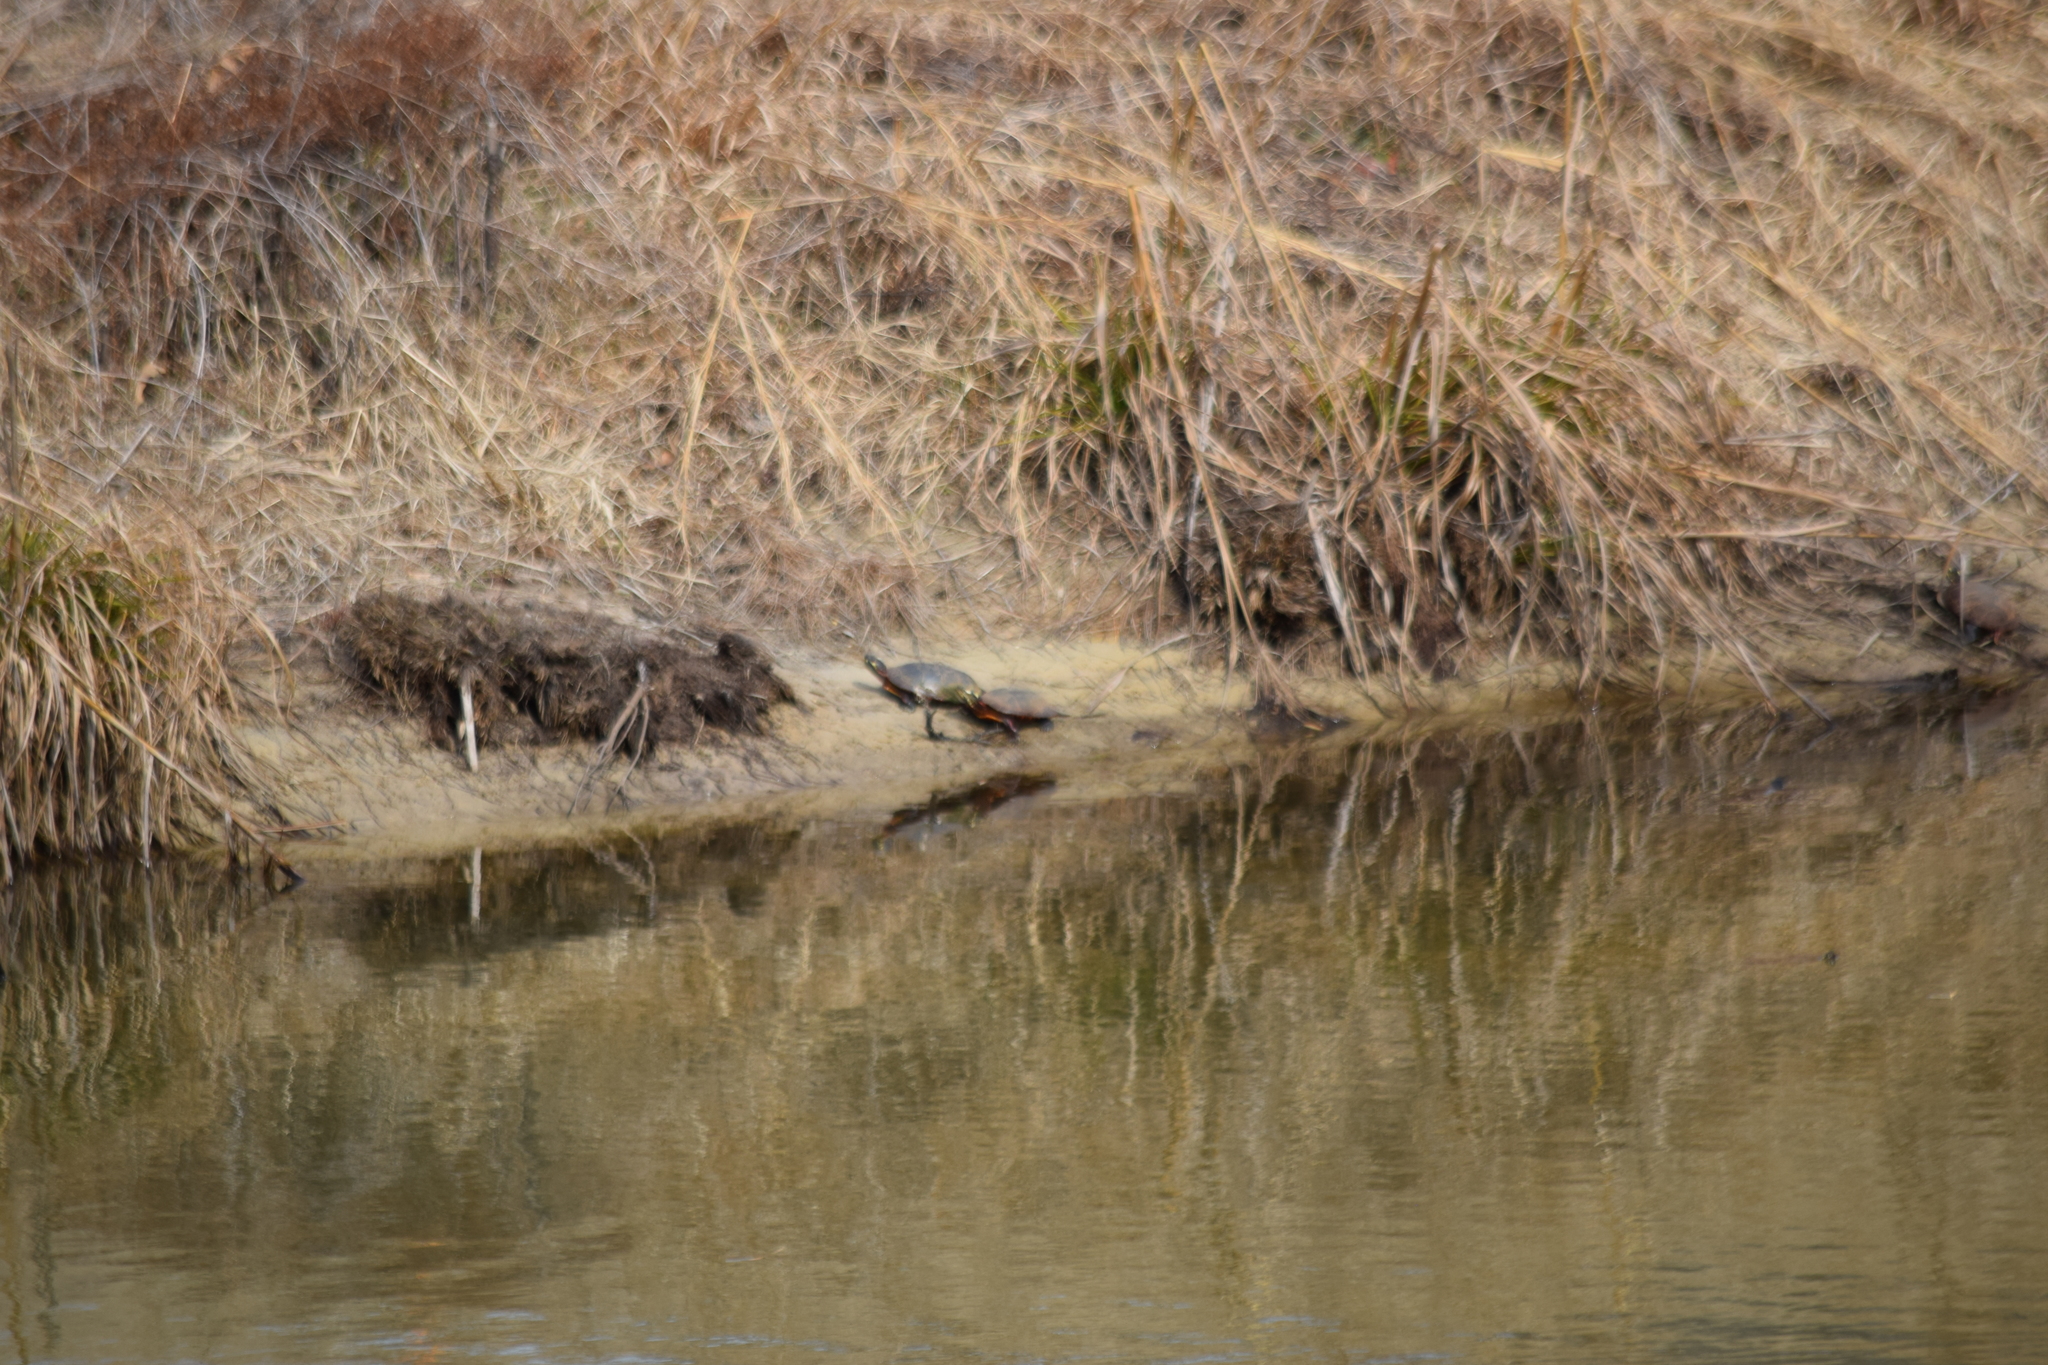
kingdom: Animalia
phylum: Chordata
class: Testudines
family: Emydidae
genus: Chrysemys
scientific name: Chrysemys picta
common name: Painted turtle
